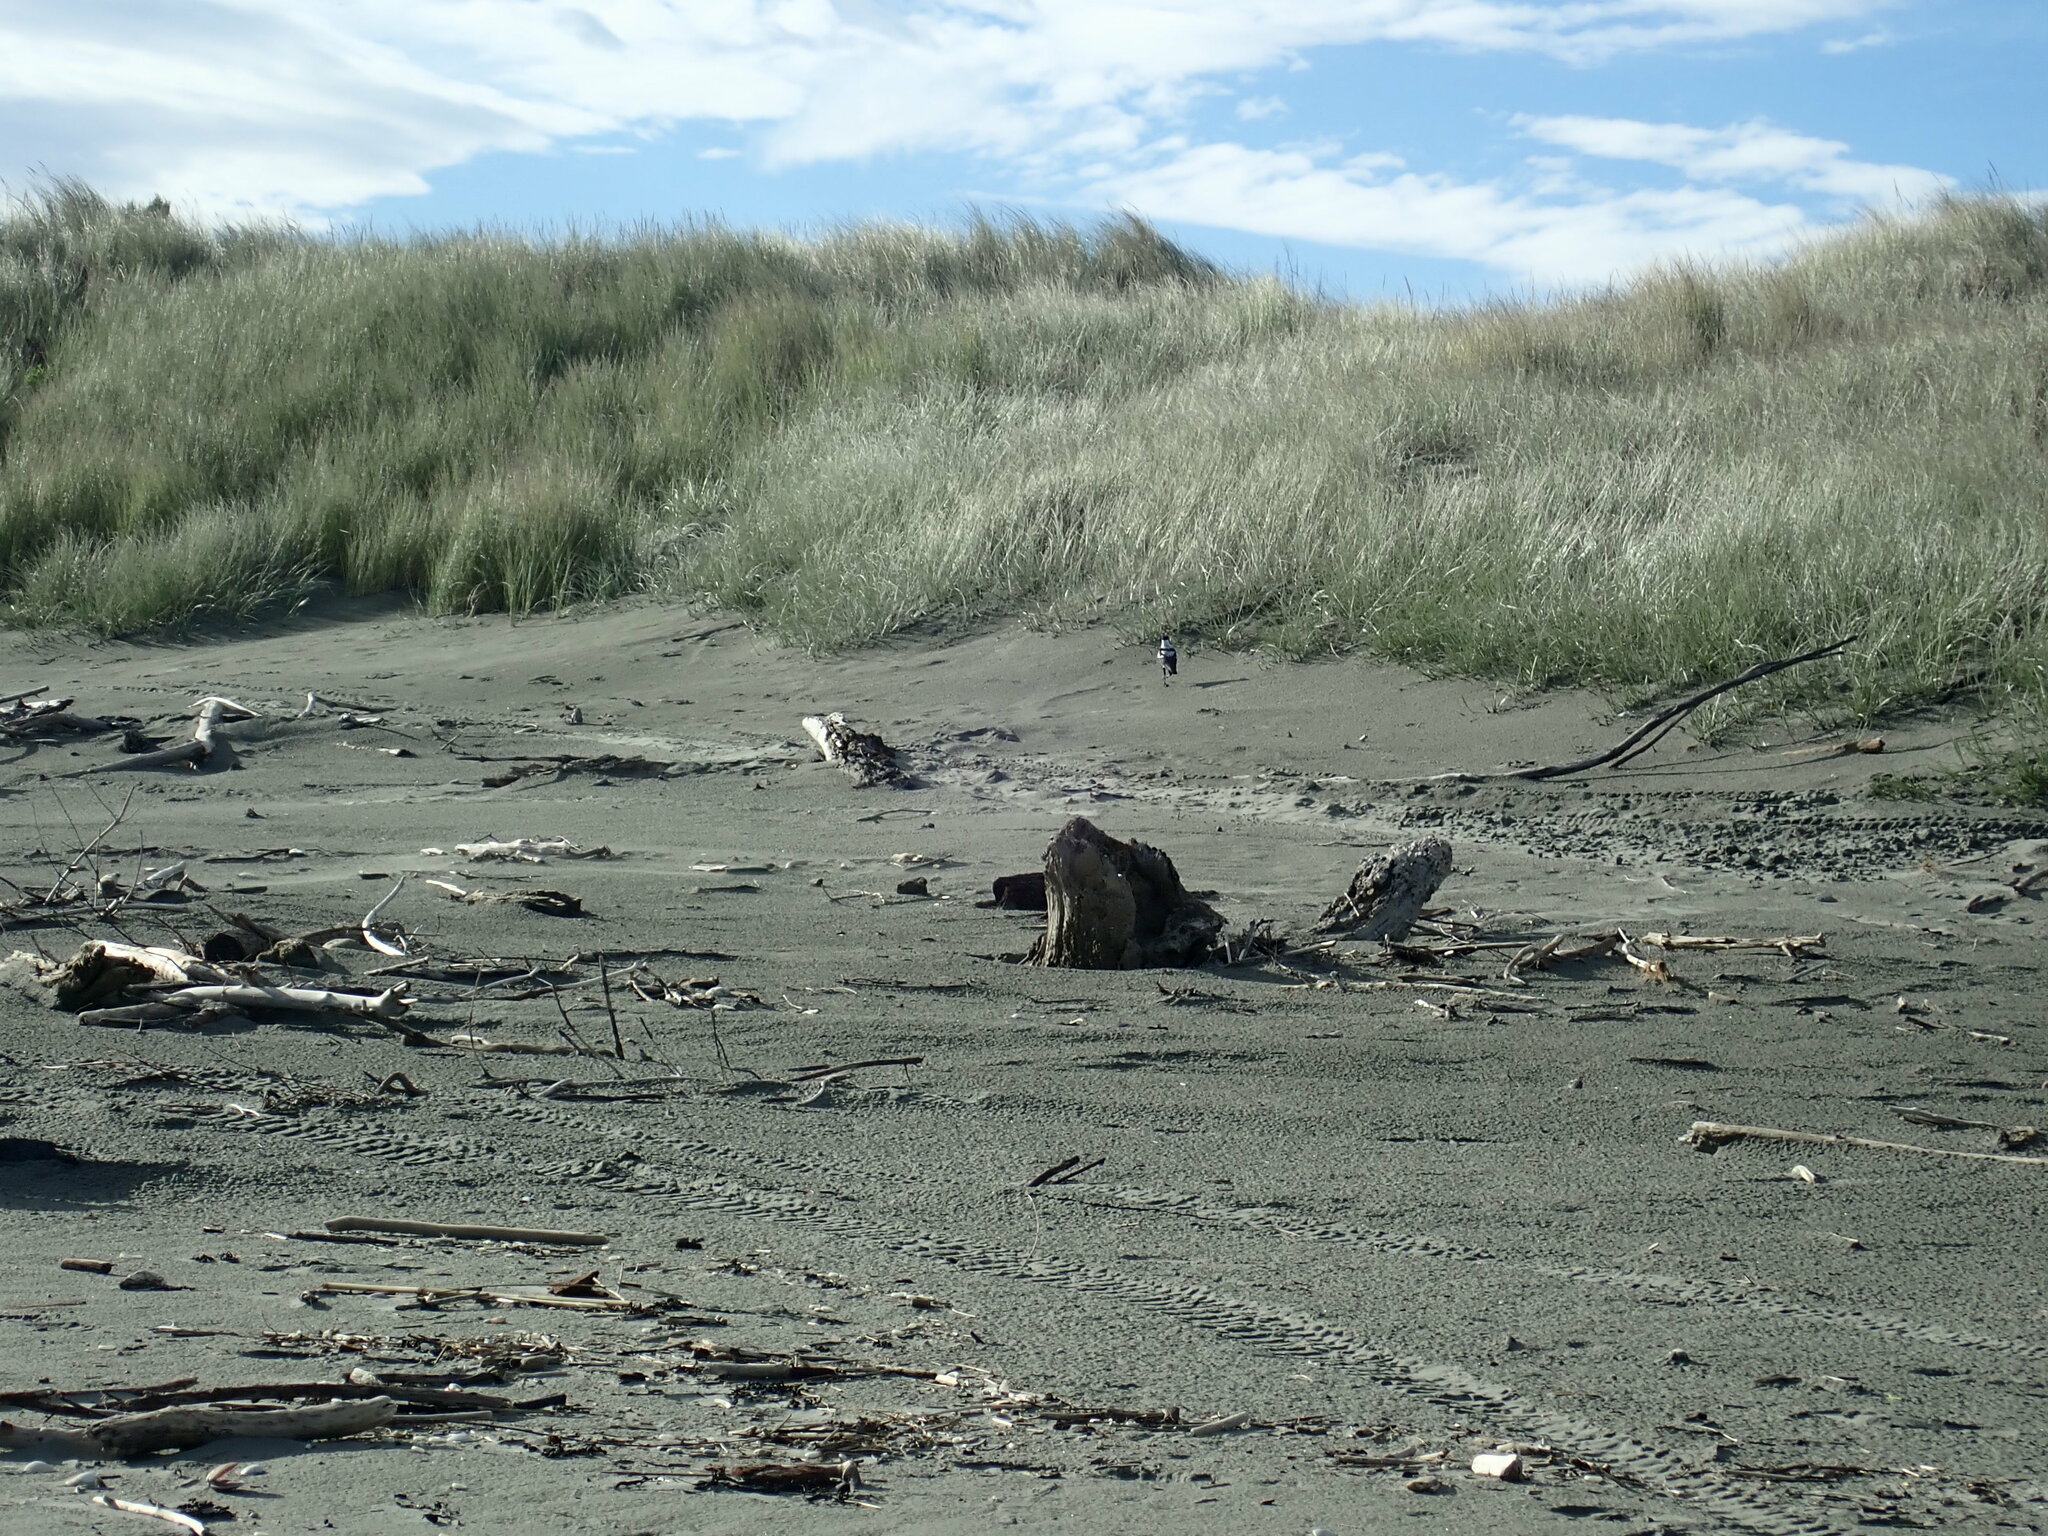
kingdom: Animalia
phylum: Chordata
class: Aves
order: Passeriformes
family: Cracticidae
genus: Gymnorhina
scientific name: Gymnorhina tibicen
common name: Australian magpie
